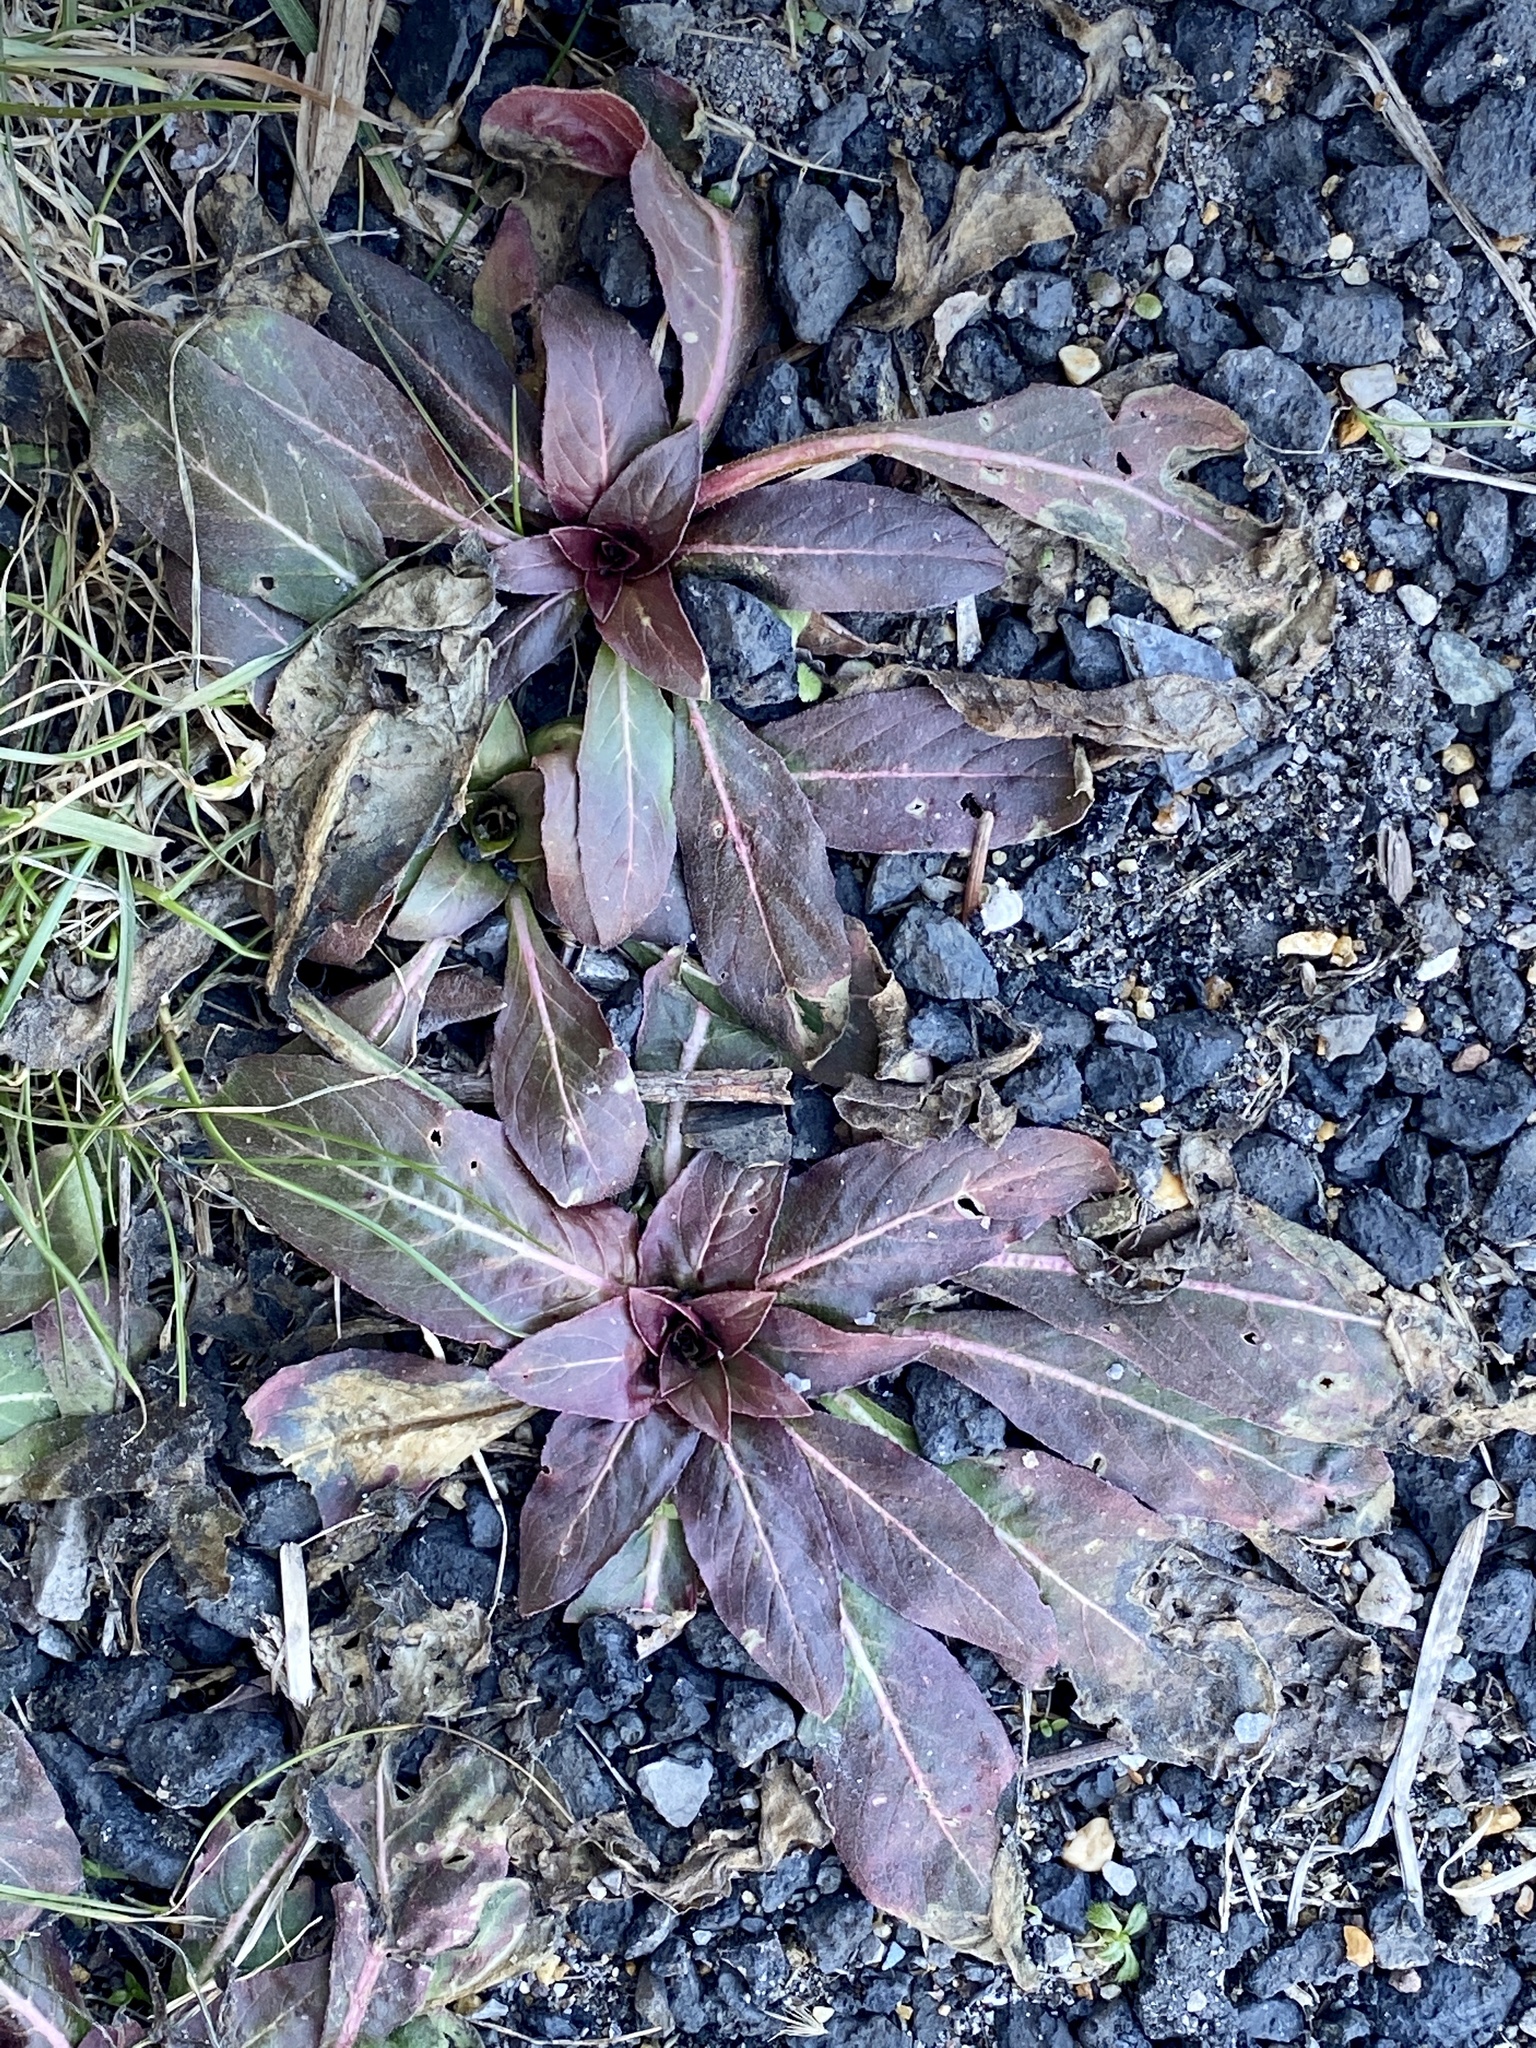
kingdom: Plantae
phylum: Tracheophyta
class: Magnoliopsida
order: Myrtales
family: Onagraceae
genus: Oenothera
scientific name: Oenothera biennis
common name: Common evening-primrose
